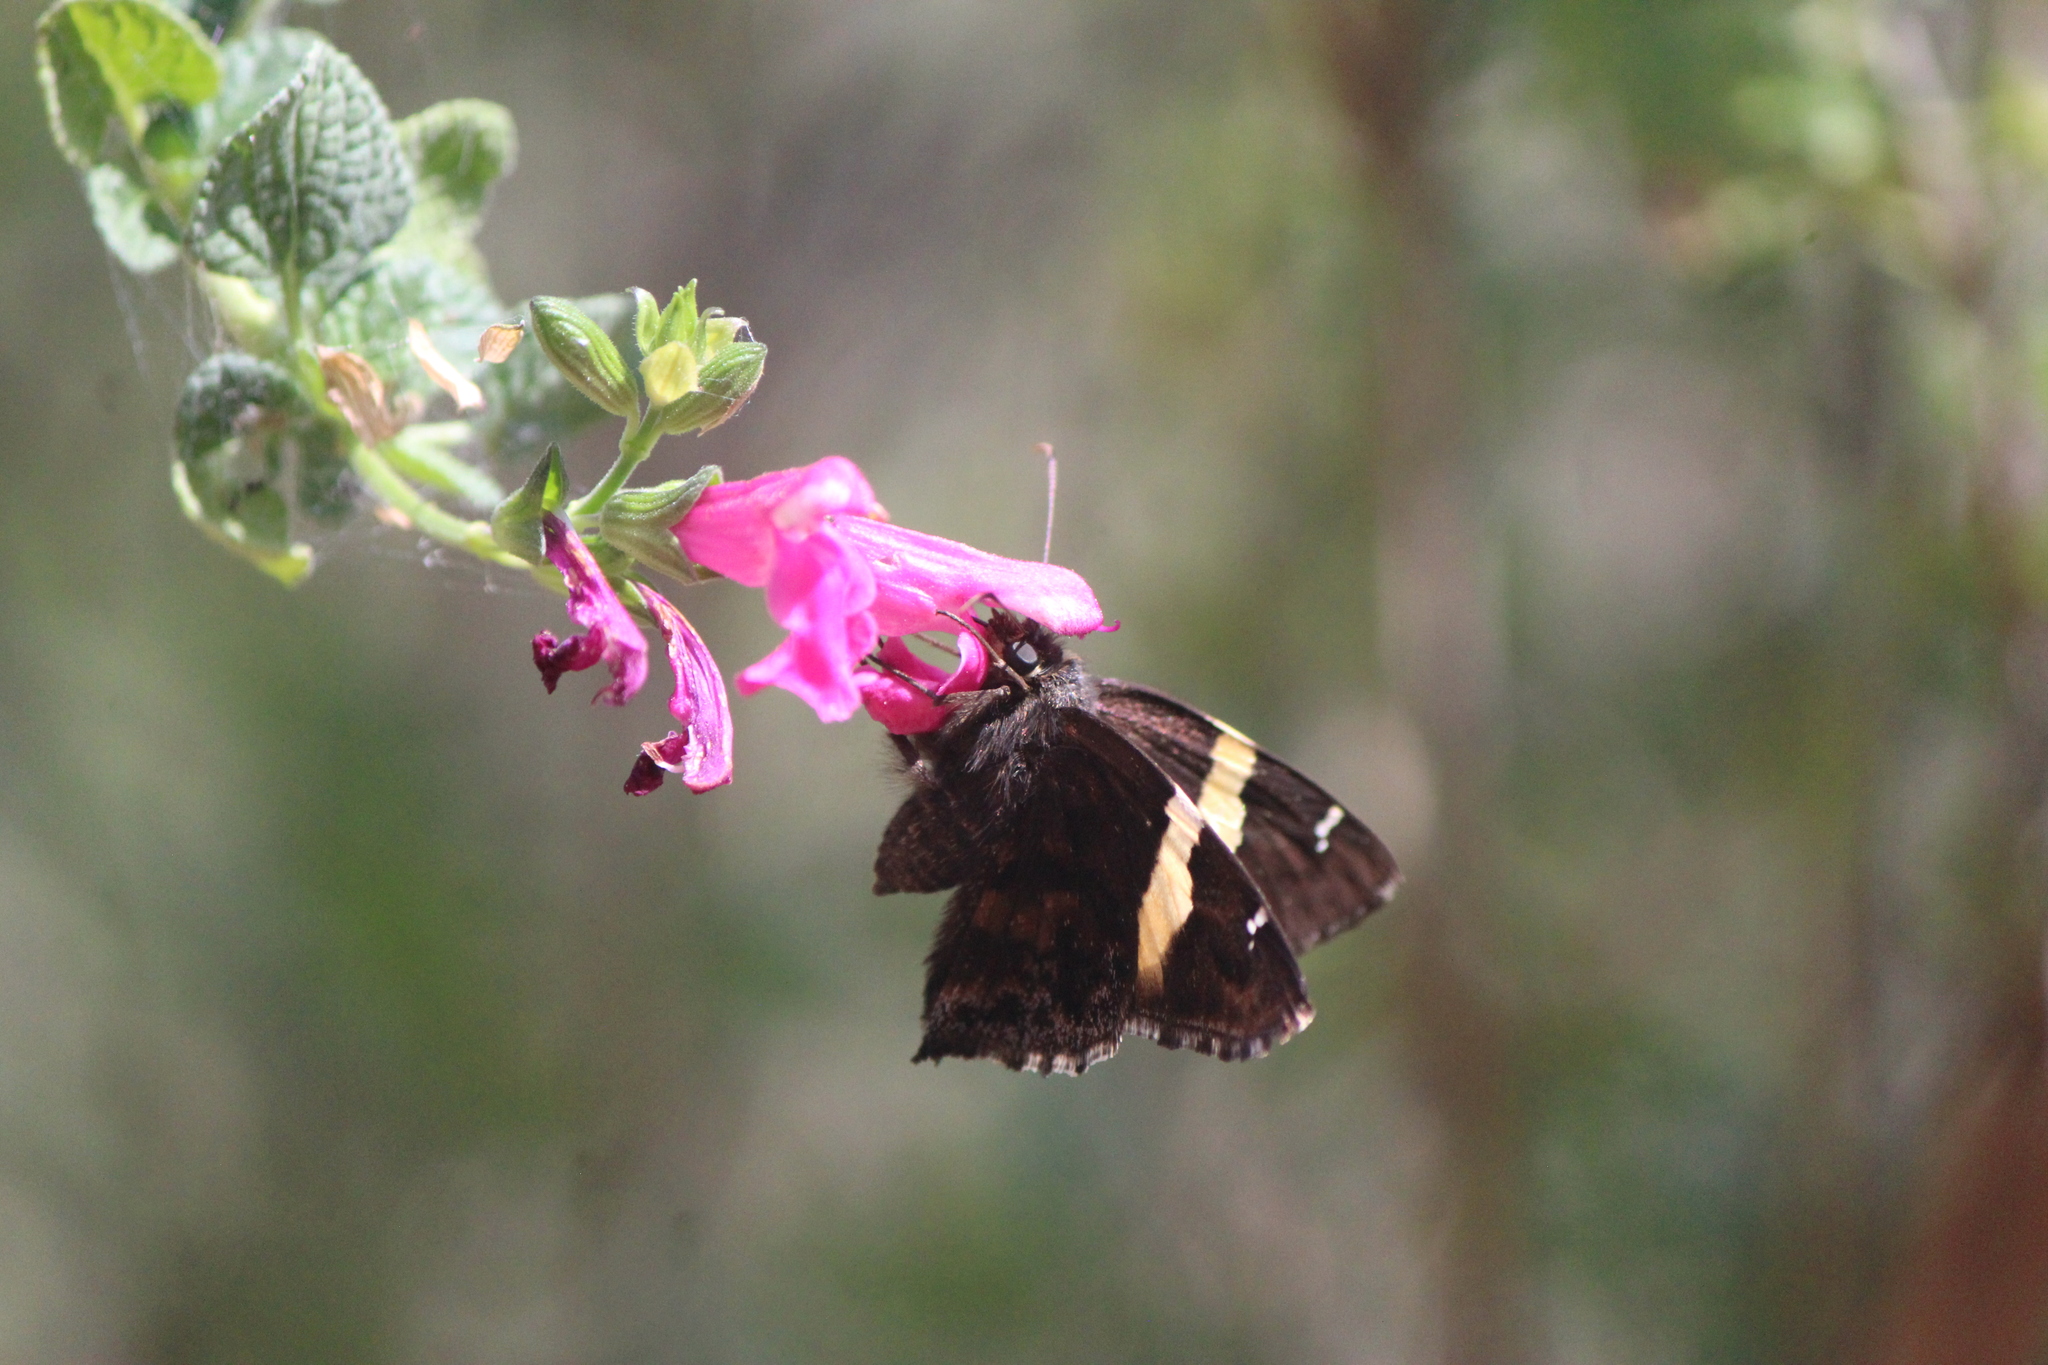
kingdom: Animalia
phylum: Arthropoda
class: Arachnida
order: Scorpiones
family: Bothriuridae
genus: Telegonus
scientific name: Telegonus cellus
